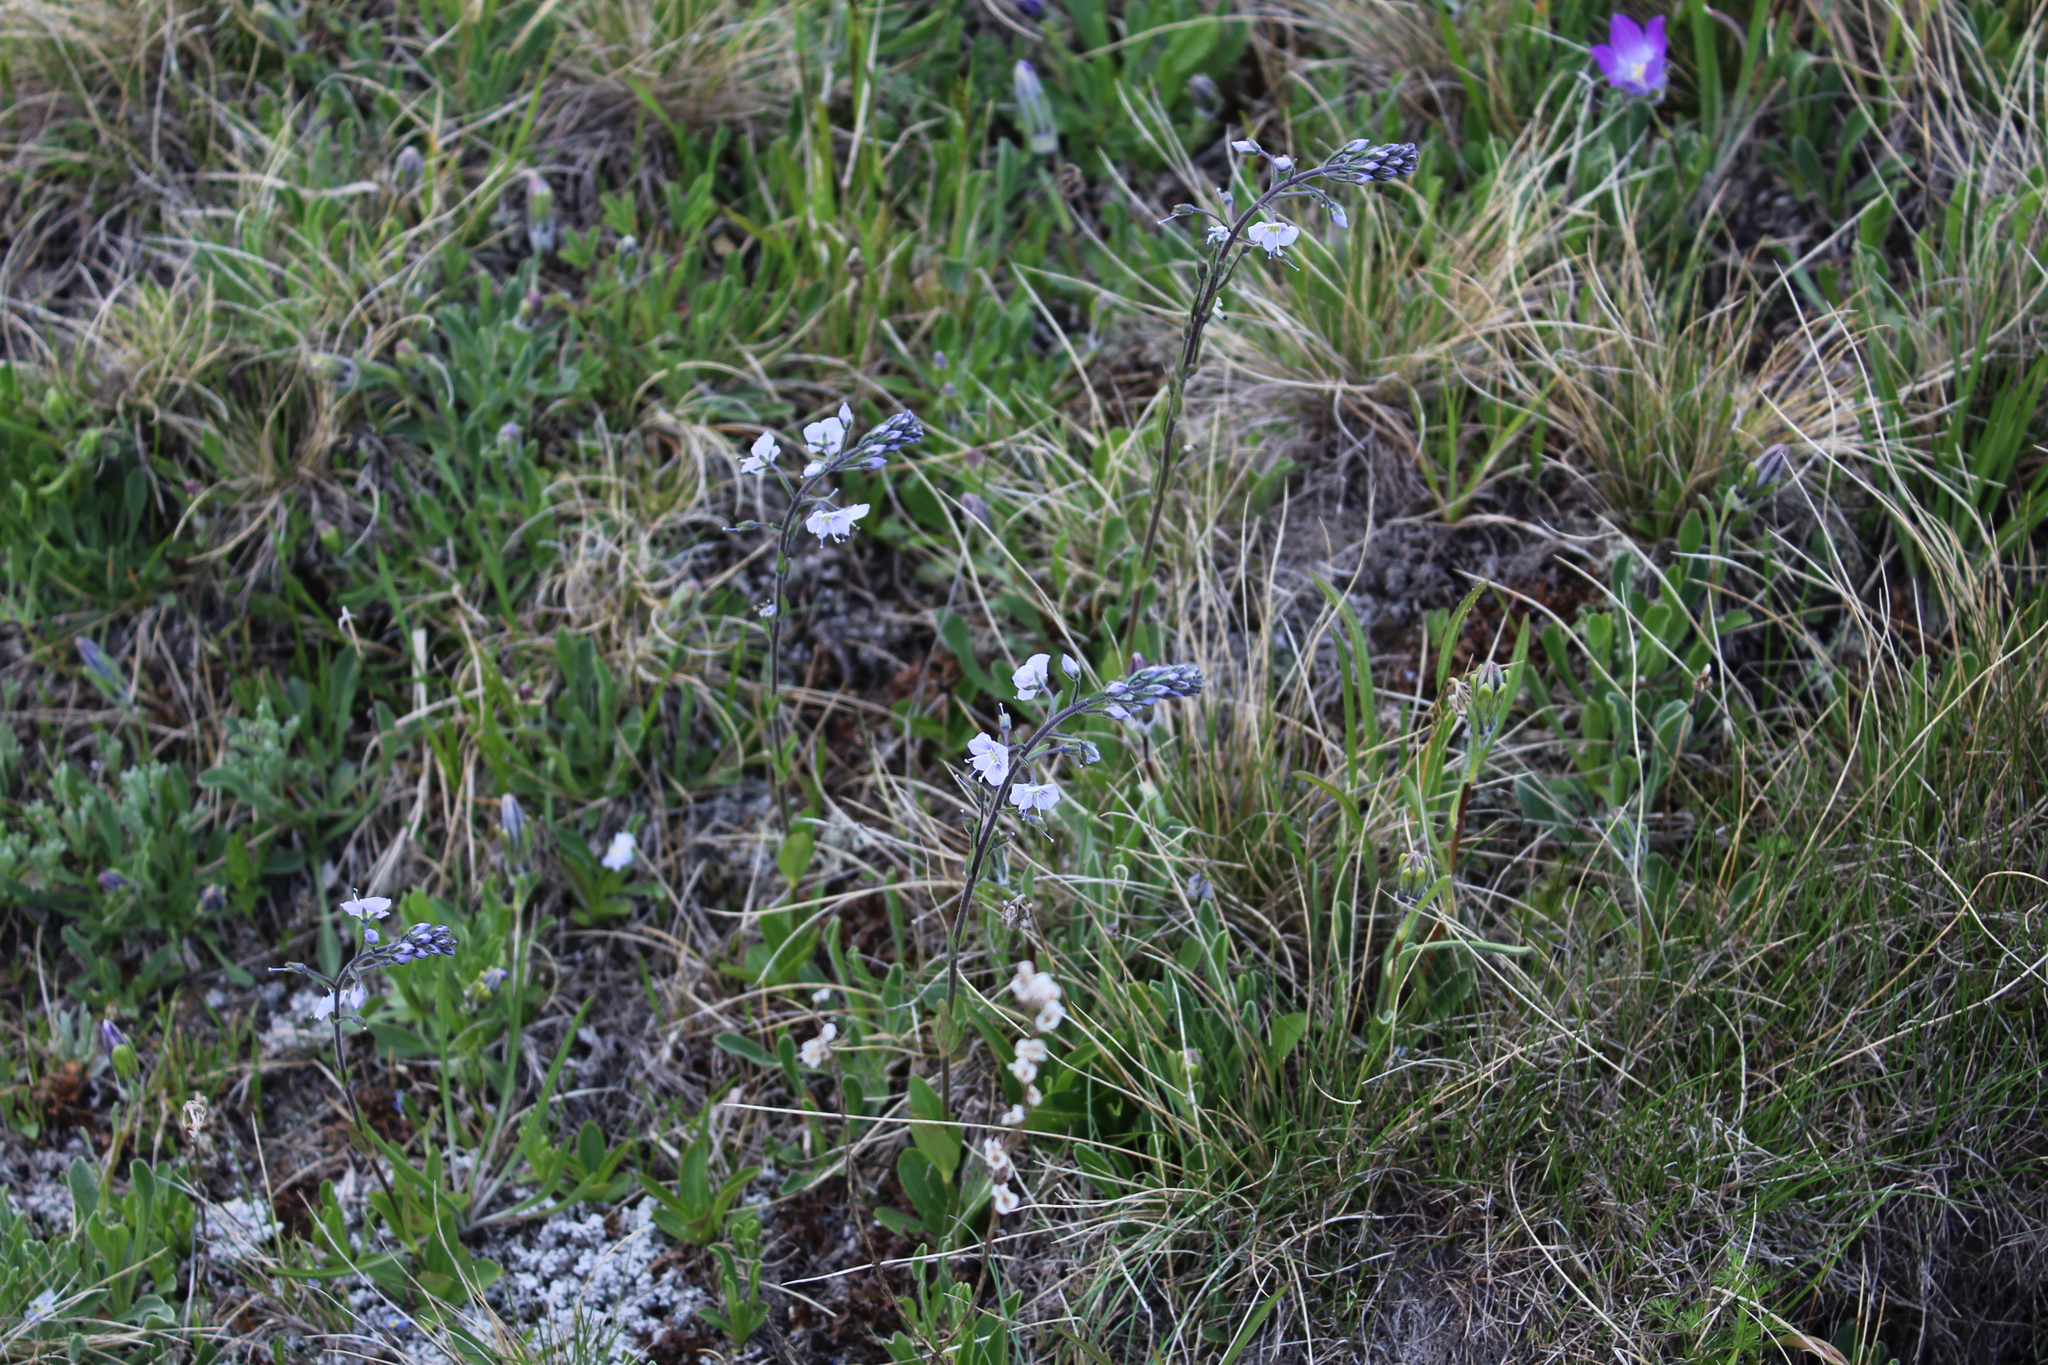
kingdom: Plantae
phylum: Tracheophyta
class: Magnoliopsida
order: Lamiales
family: Plantaginaceae
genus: Veronica
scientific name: Veronica gentianoides
